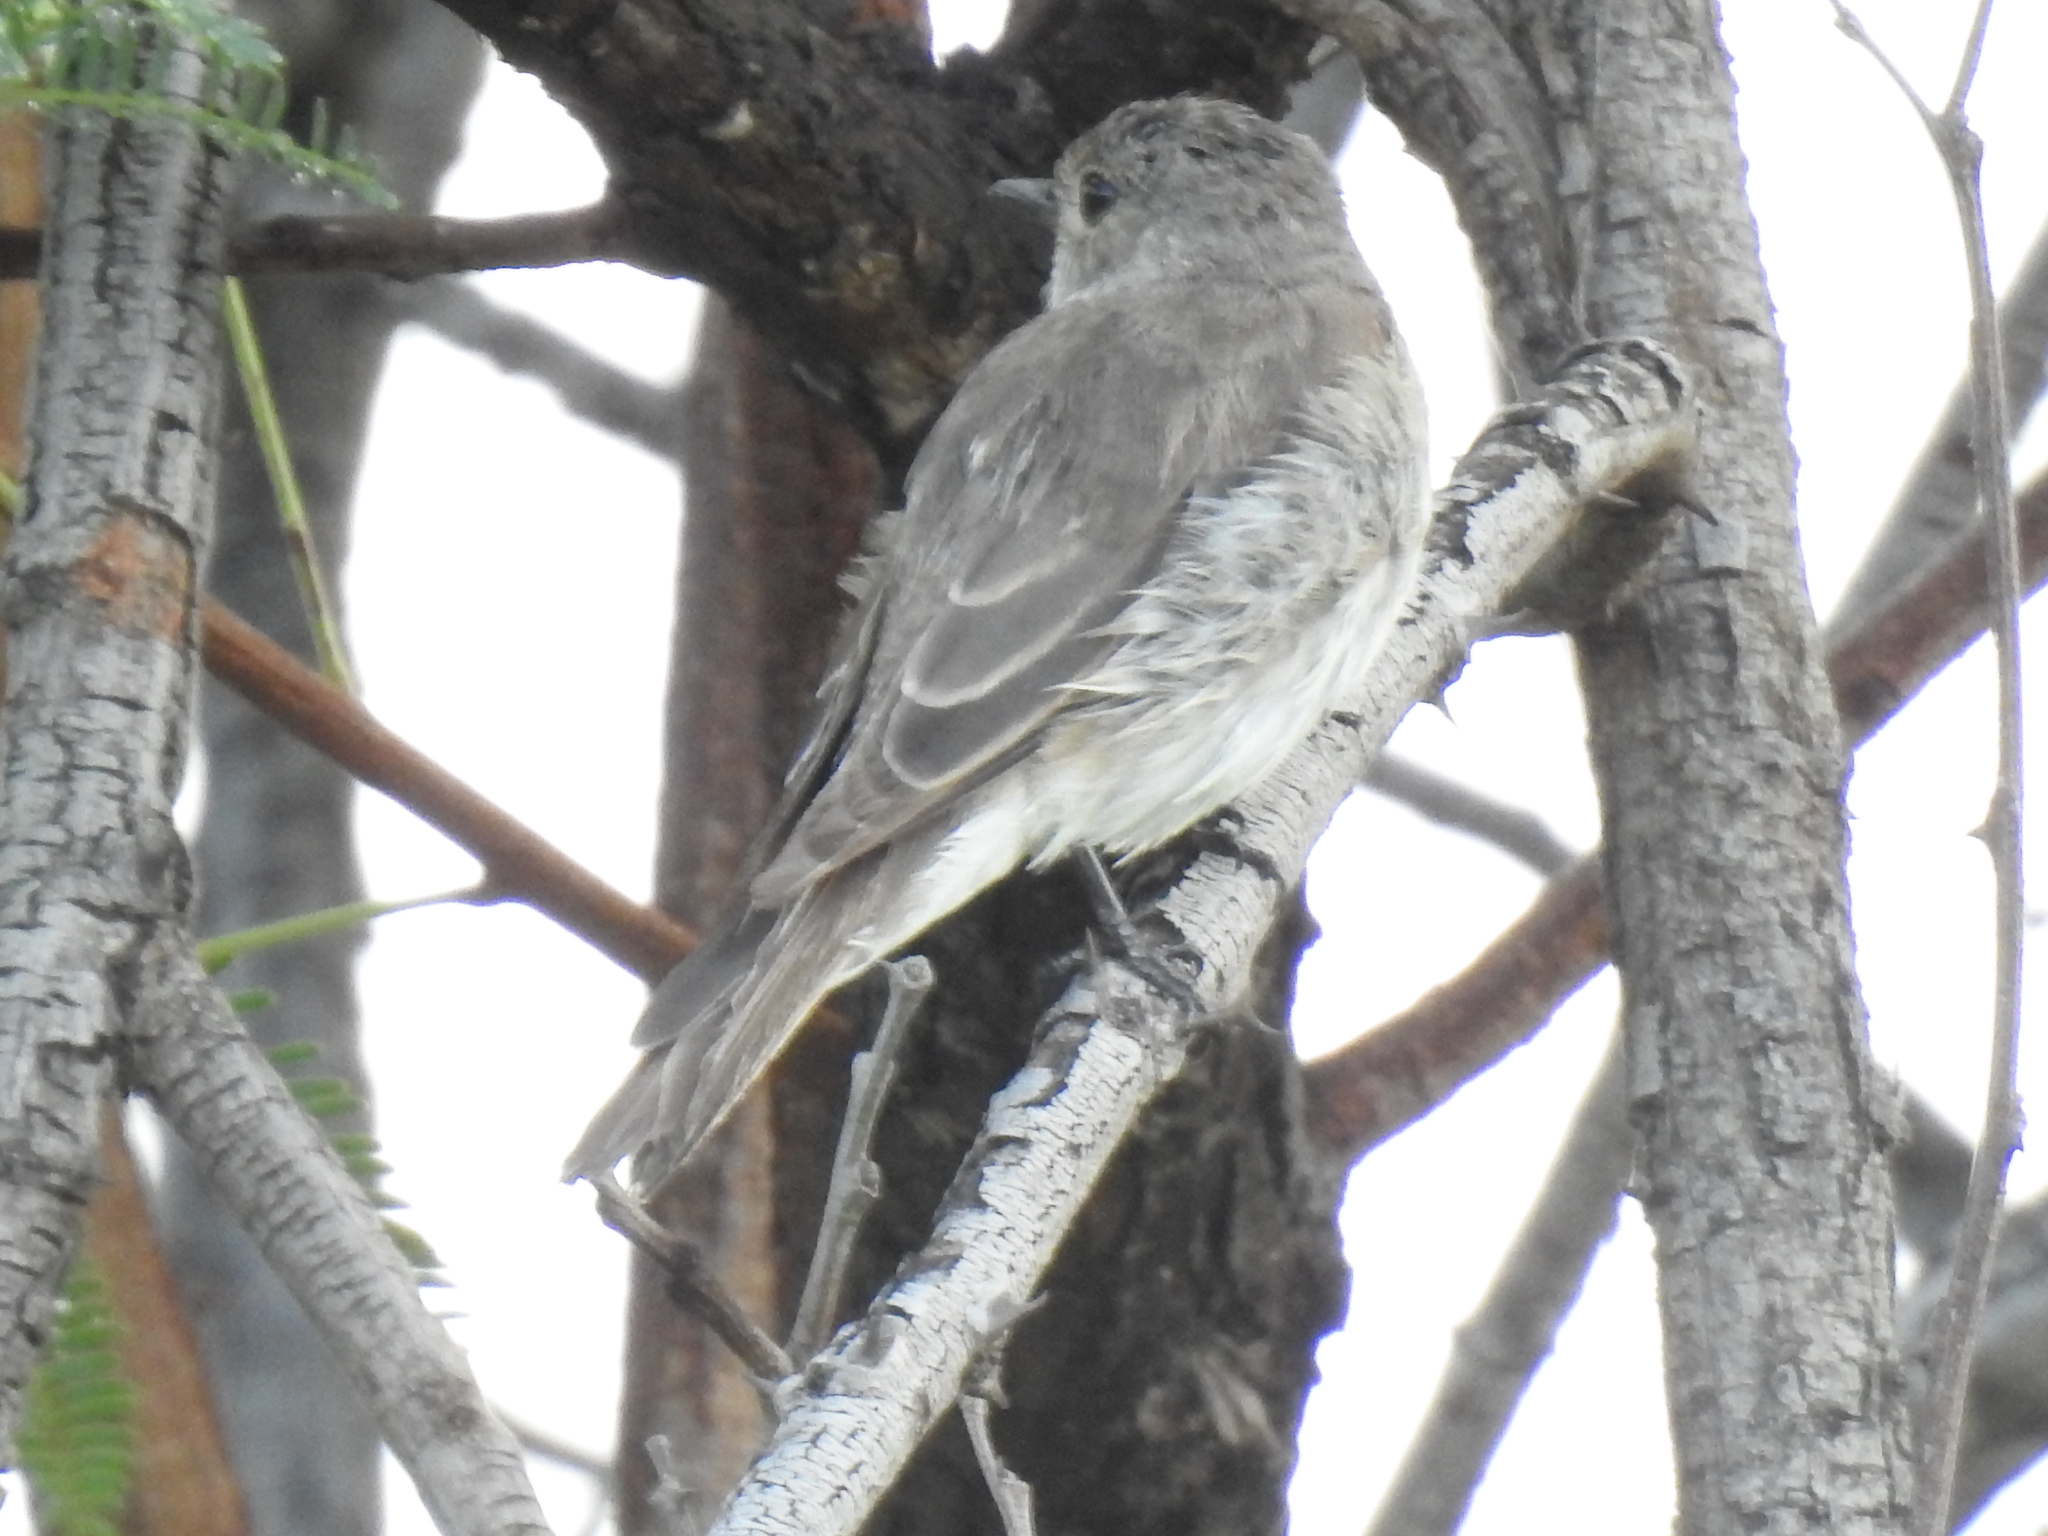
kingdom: Animalia
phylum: Chordata
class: Aves
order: Passeriformes
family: Muscicapidae
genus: Muscicapa
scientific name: Muscicapa striata
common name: Spotted flycatcher
